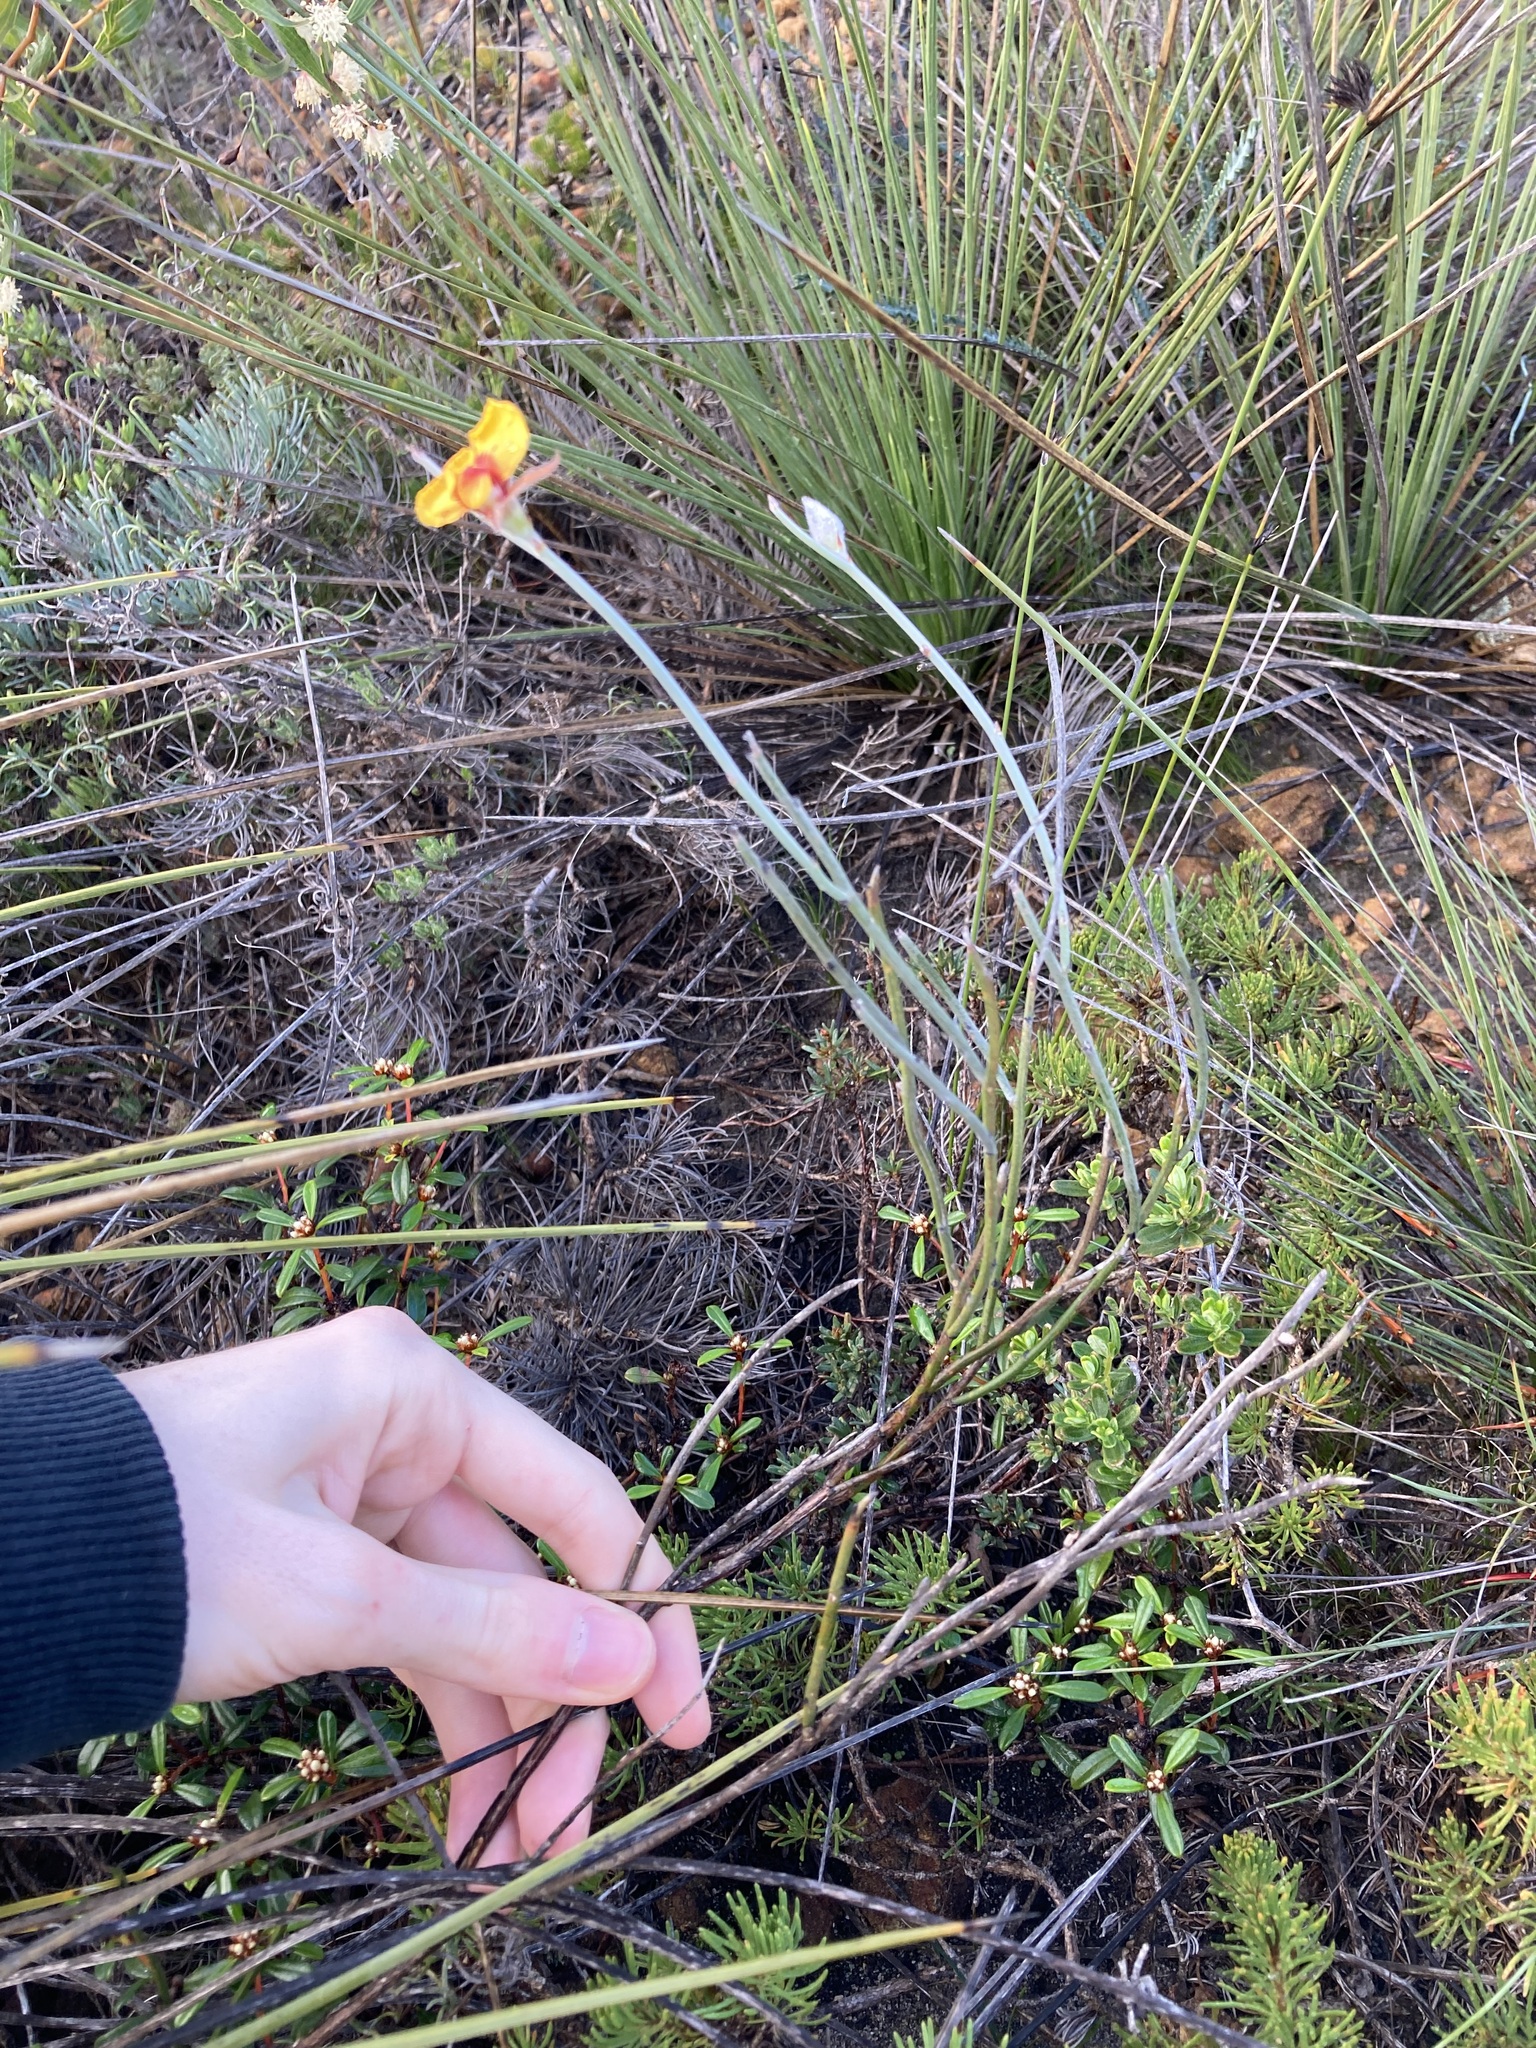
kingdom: Plantae
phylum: Tracheophyta
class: Magnoliopsida
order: Fabales
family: Fabaceae
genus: Jacksonia
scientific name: Jacksonia restioides
